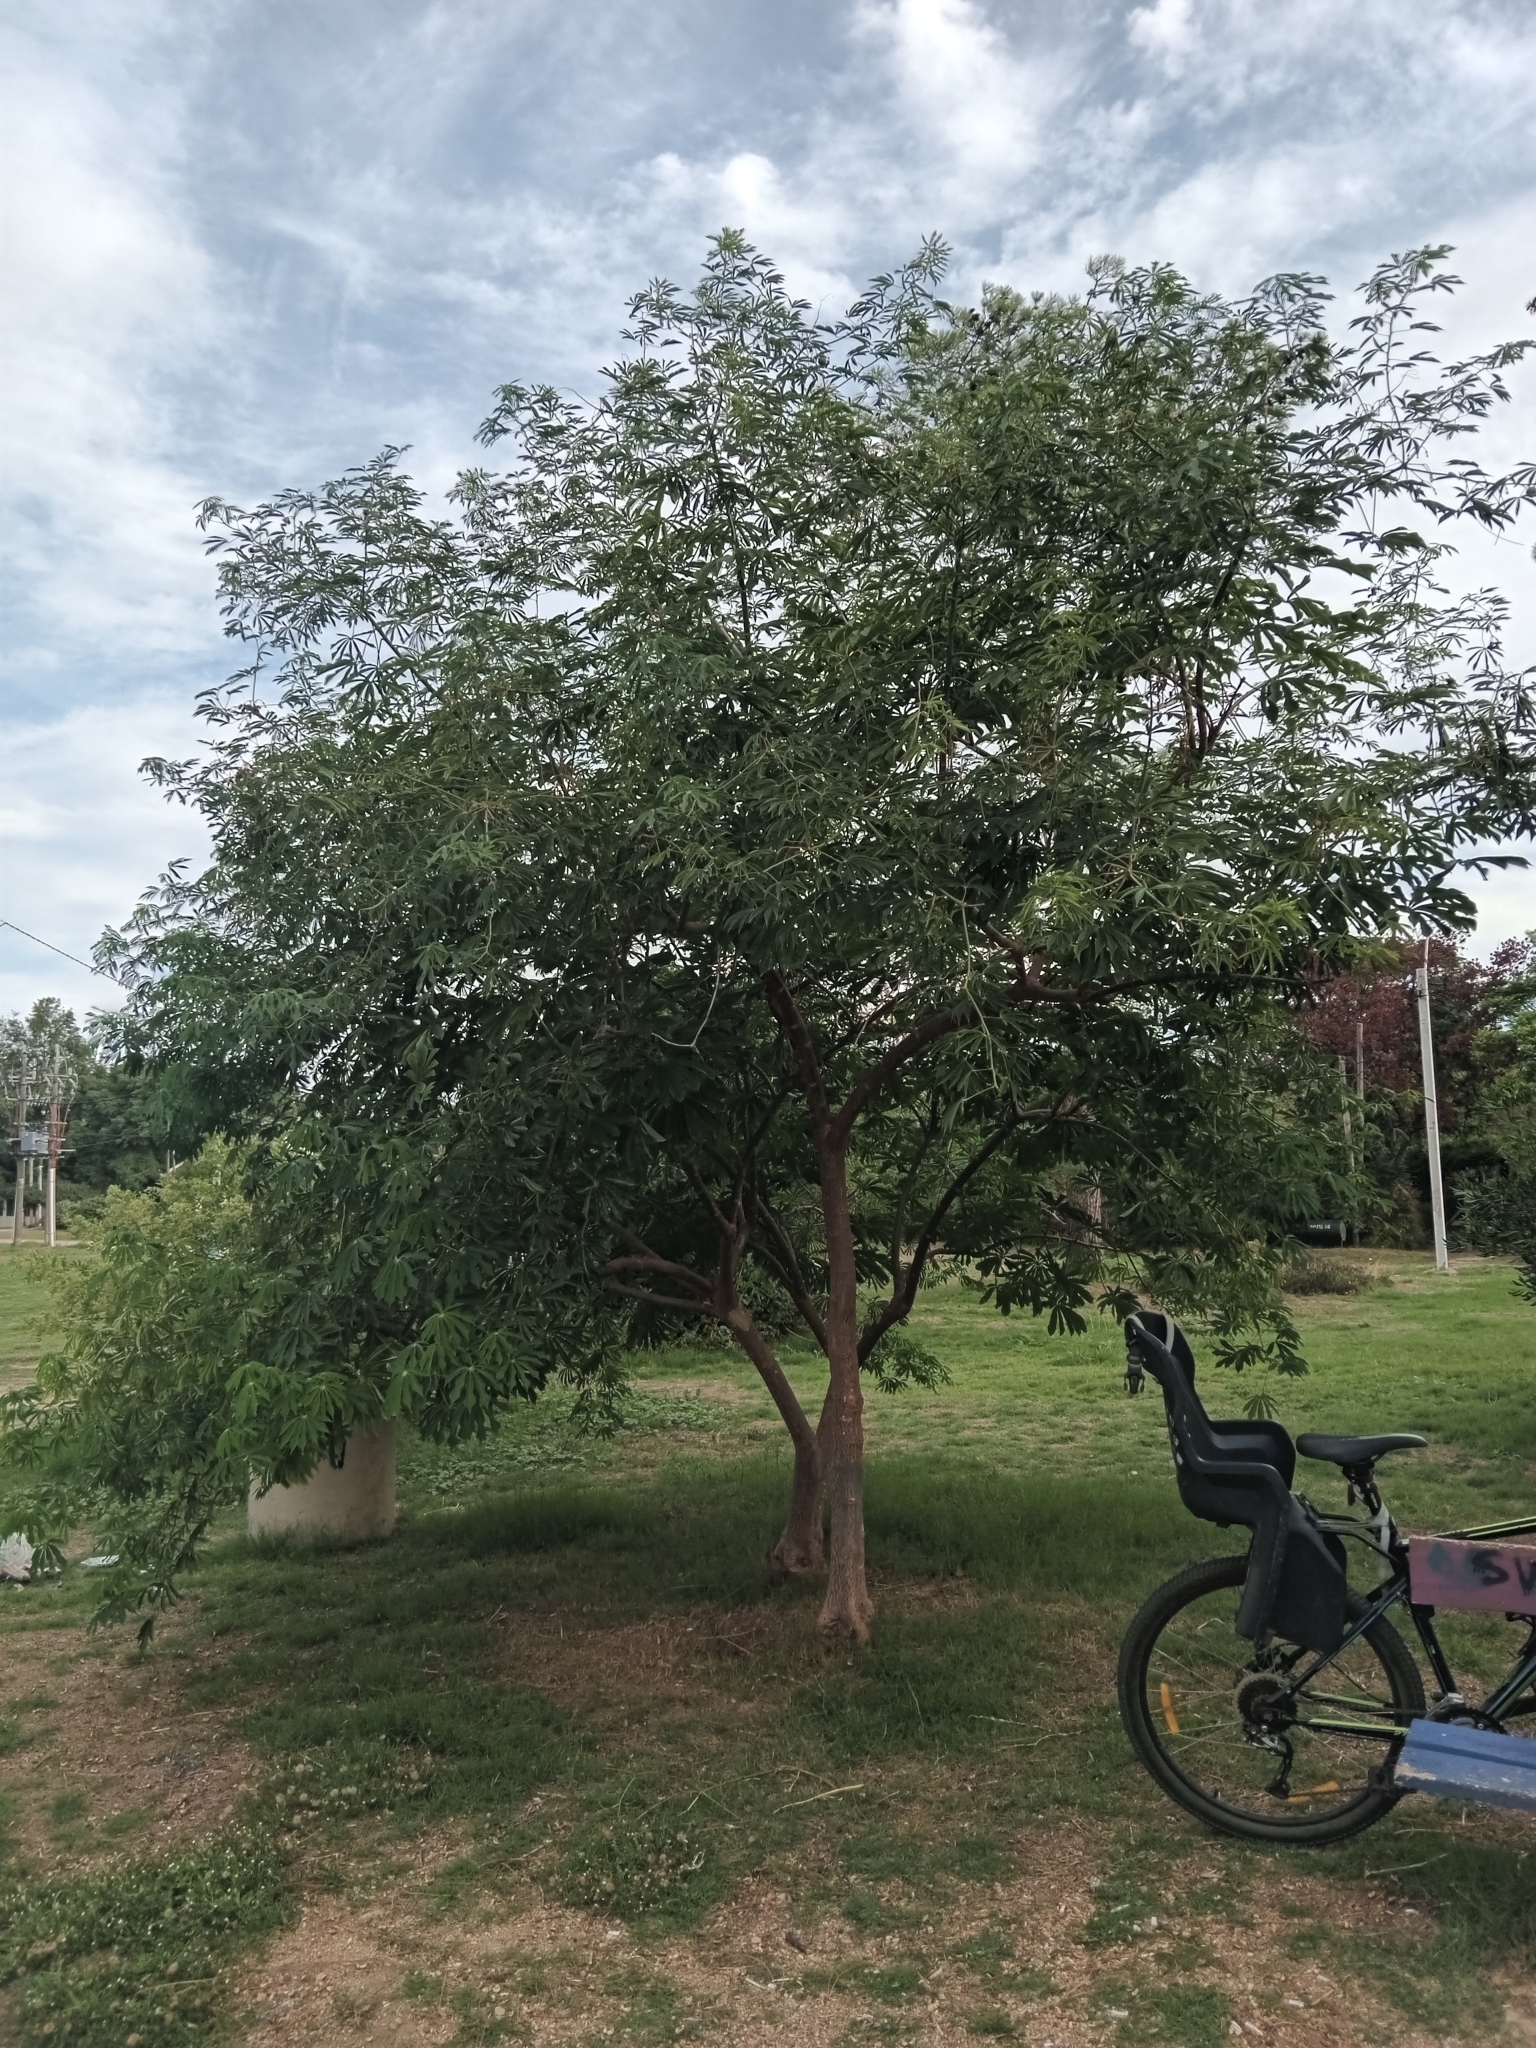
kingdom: Plantae
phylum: Tracheophyta
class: Magnoliopsida
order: Malpighiales
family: Euphorbiaceae
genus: Manihot
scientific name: Manihot grahamii
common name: Graham's manihot
